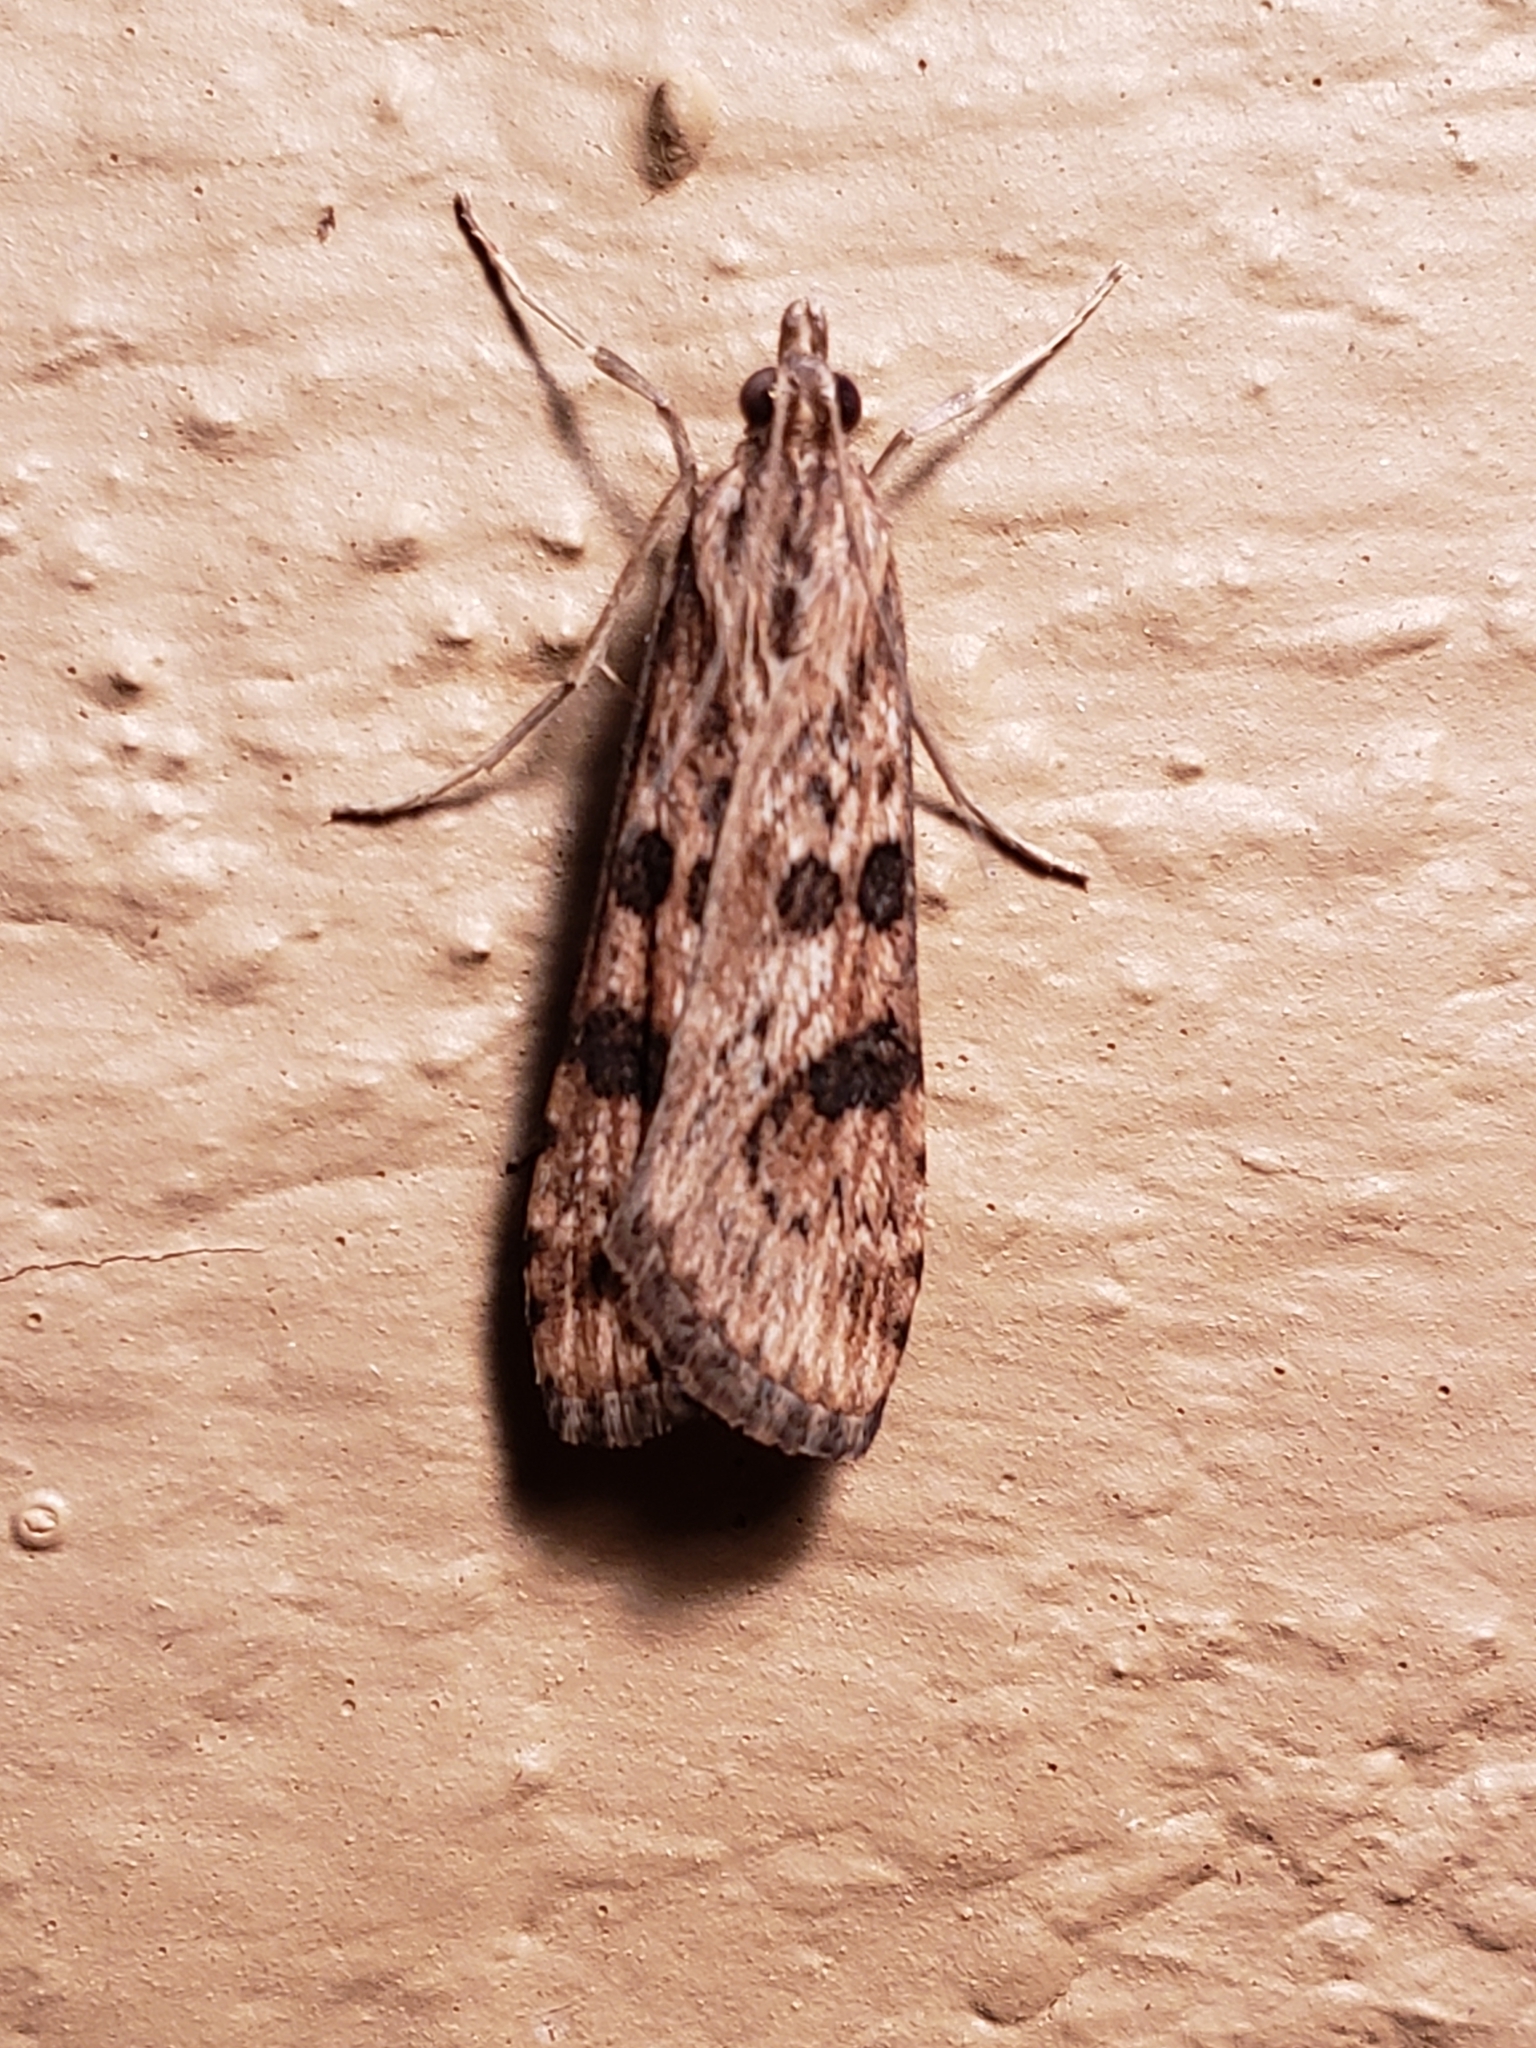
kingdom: Animalia
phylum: Arthropoda
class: Insecta
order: Lepidoptera
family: Crambidae
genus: Nomophila
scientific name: Nomophila nearctica
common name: American rush veneer
